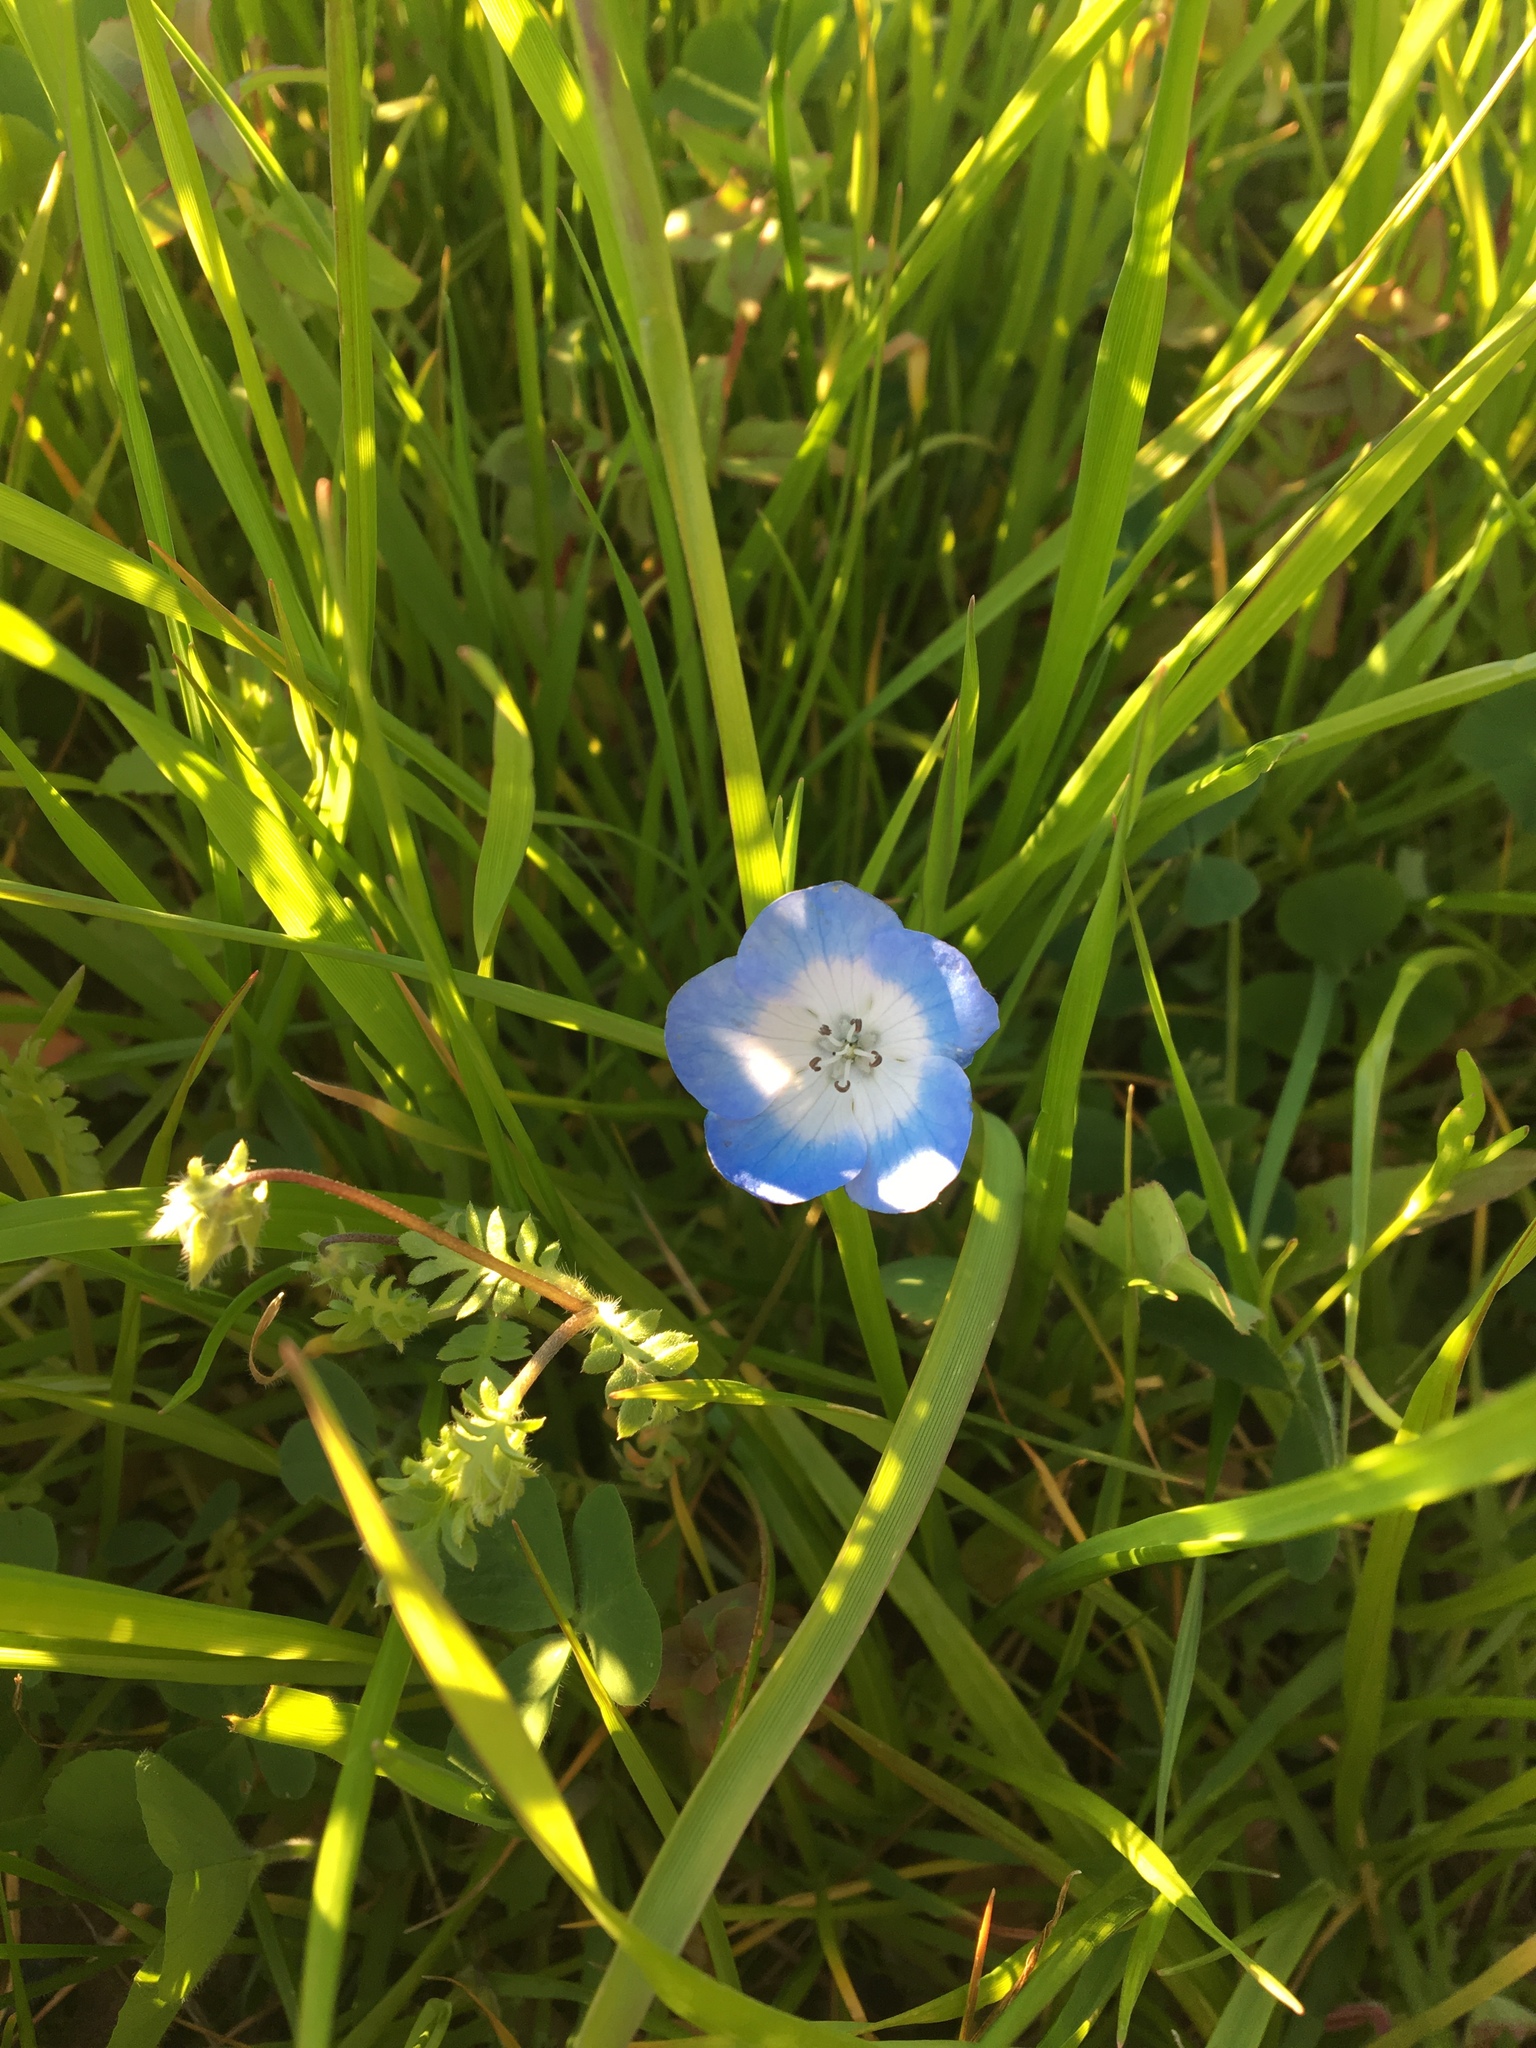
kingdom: Plantae
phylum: Tracheophyta
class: Magnoliopsida
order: Boraginales
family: Hydrophyllaceae
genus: Nemophila
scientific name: Nemophila menziesii
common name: Baby's-blue-eyes
